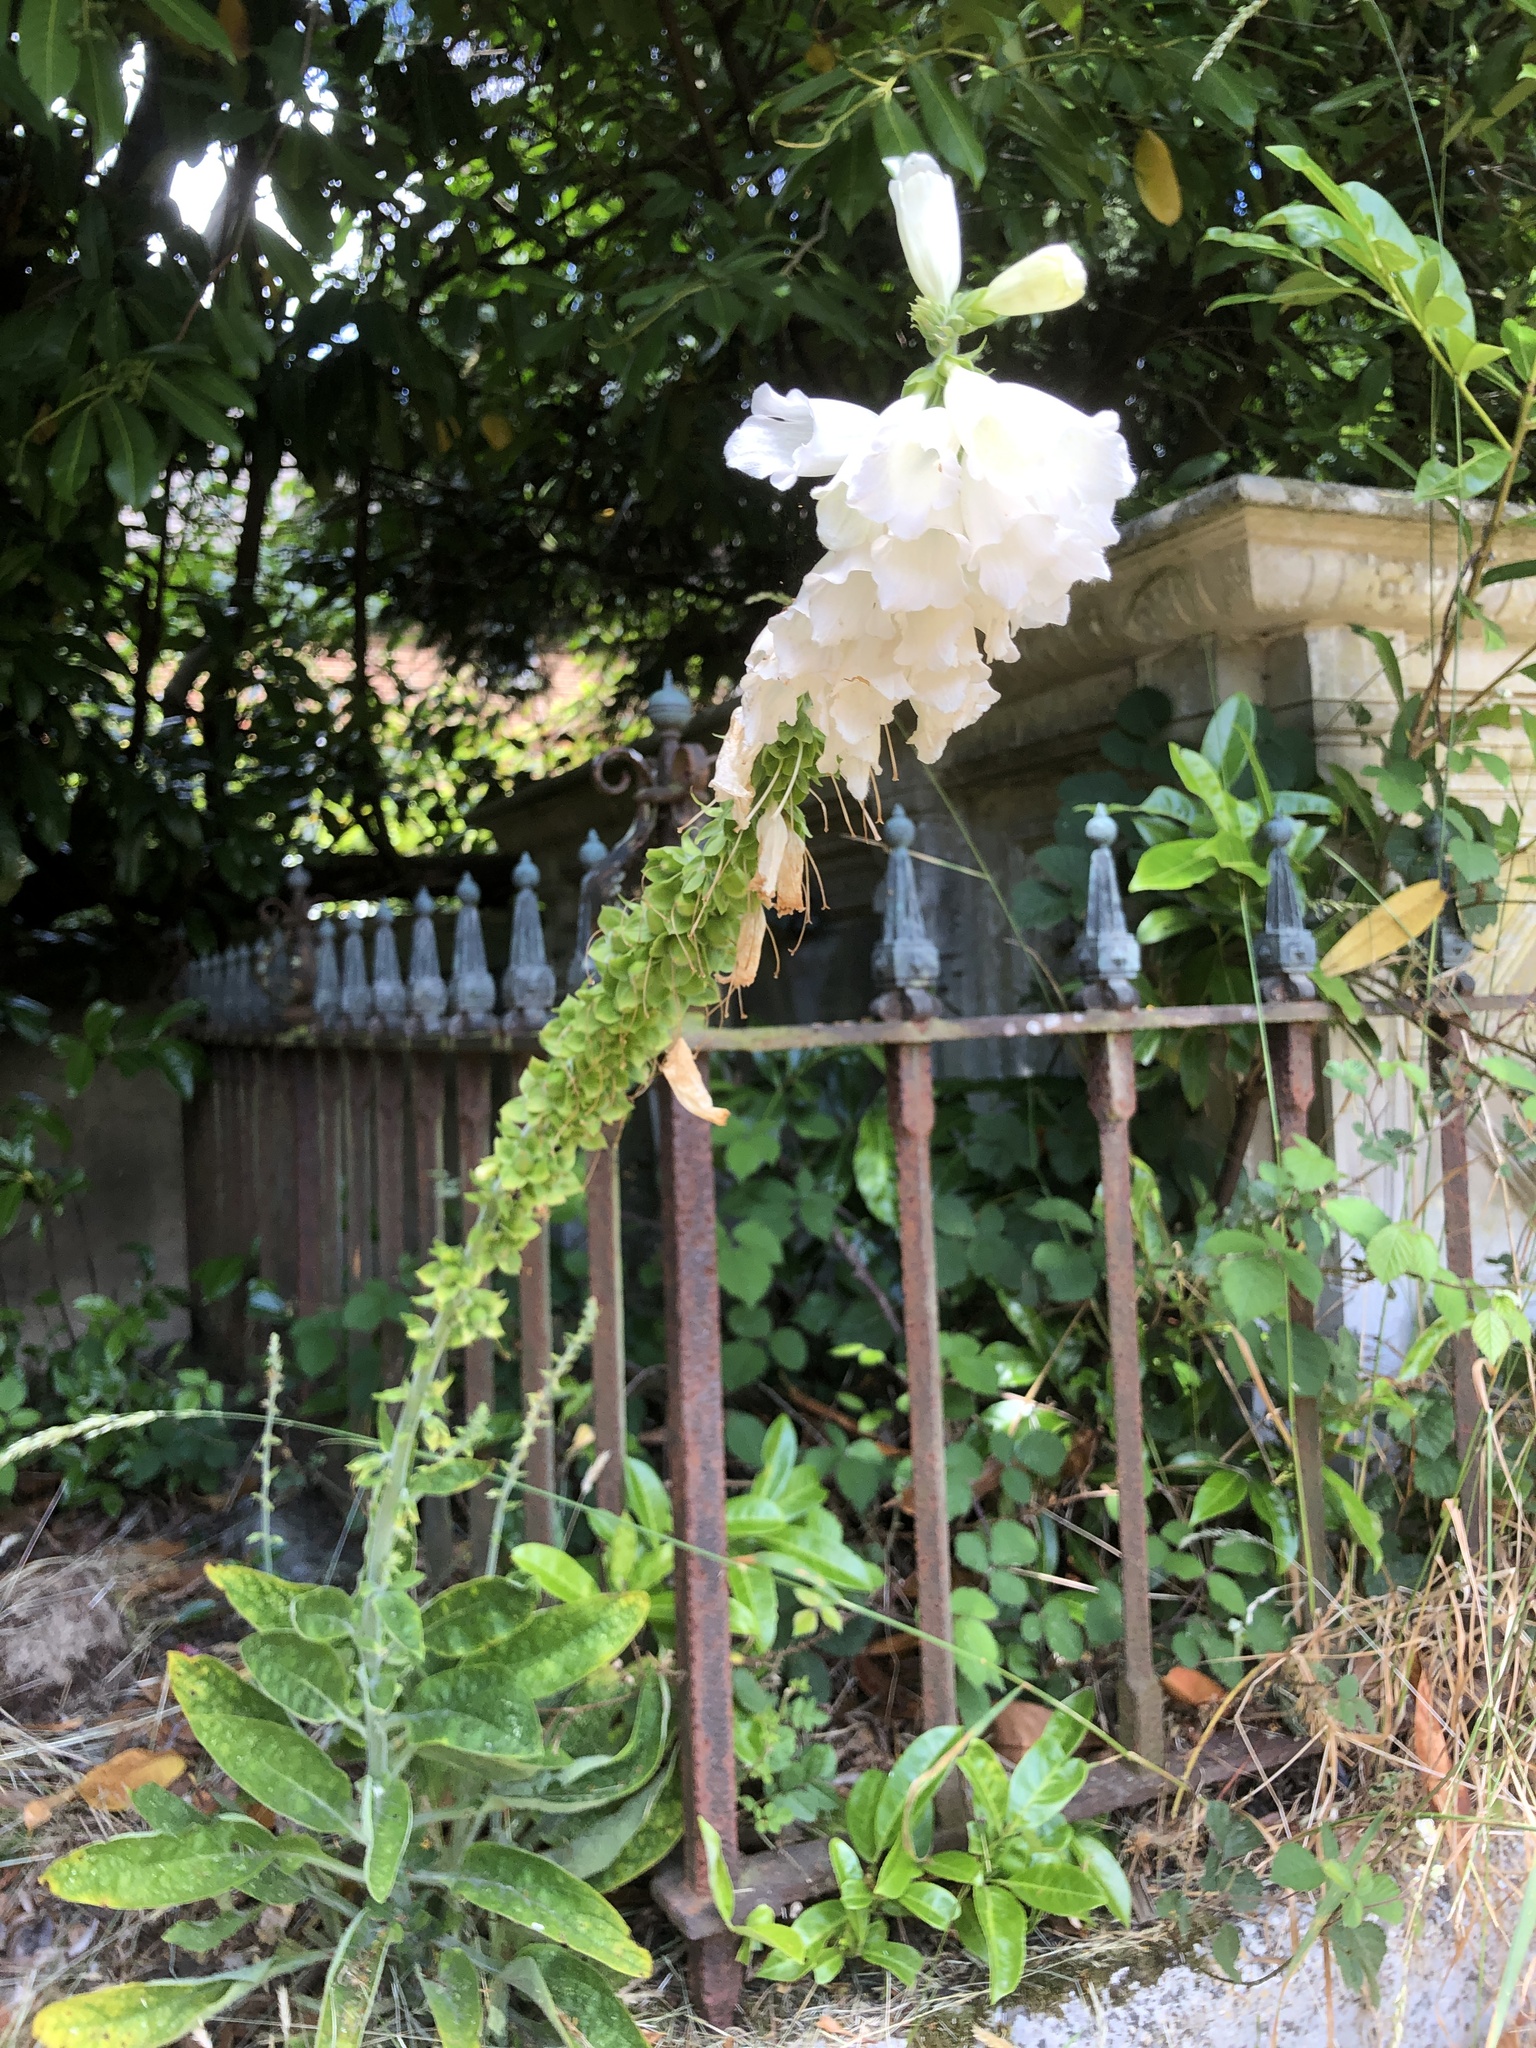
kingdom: Plantae
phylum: Tracheophyta
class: Magnoliopsida
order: Lamiales
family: Plantaginaceae
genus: Digitalis
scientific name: Digitalis purpurea
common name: Foxglove
